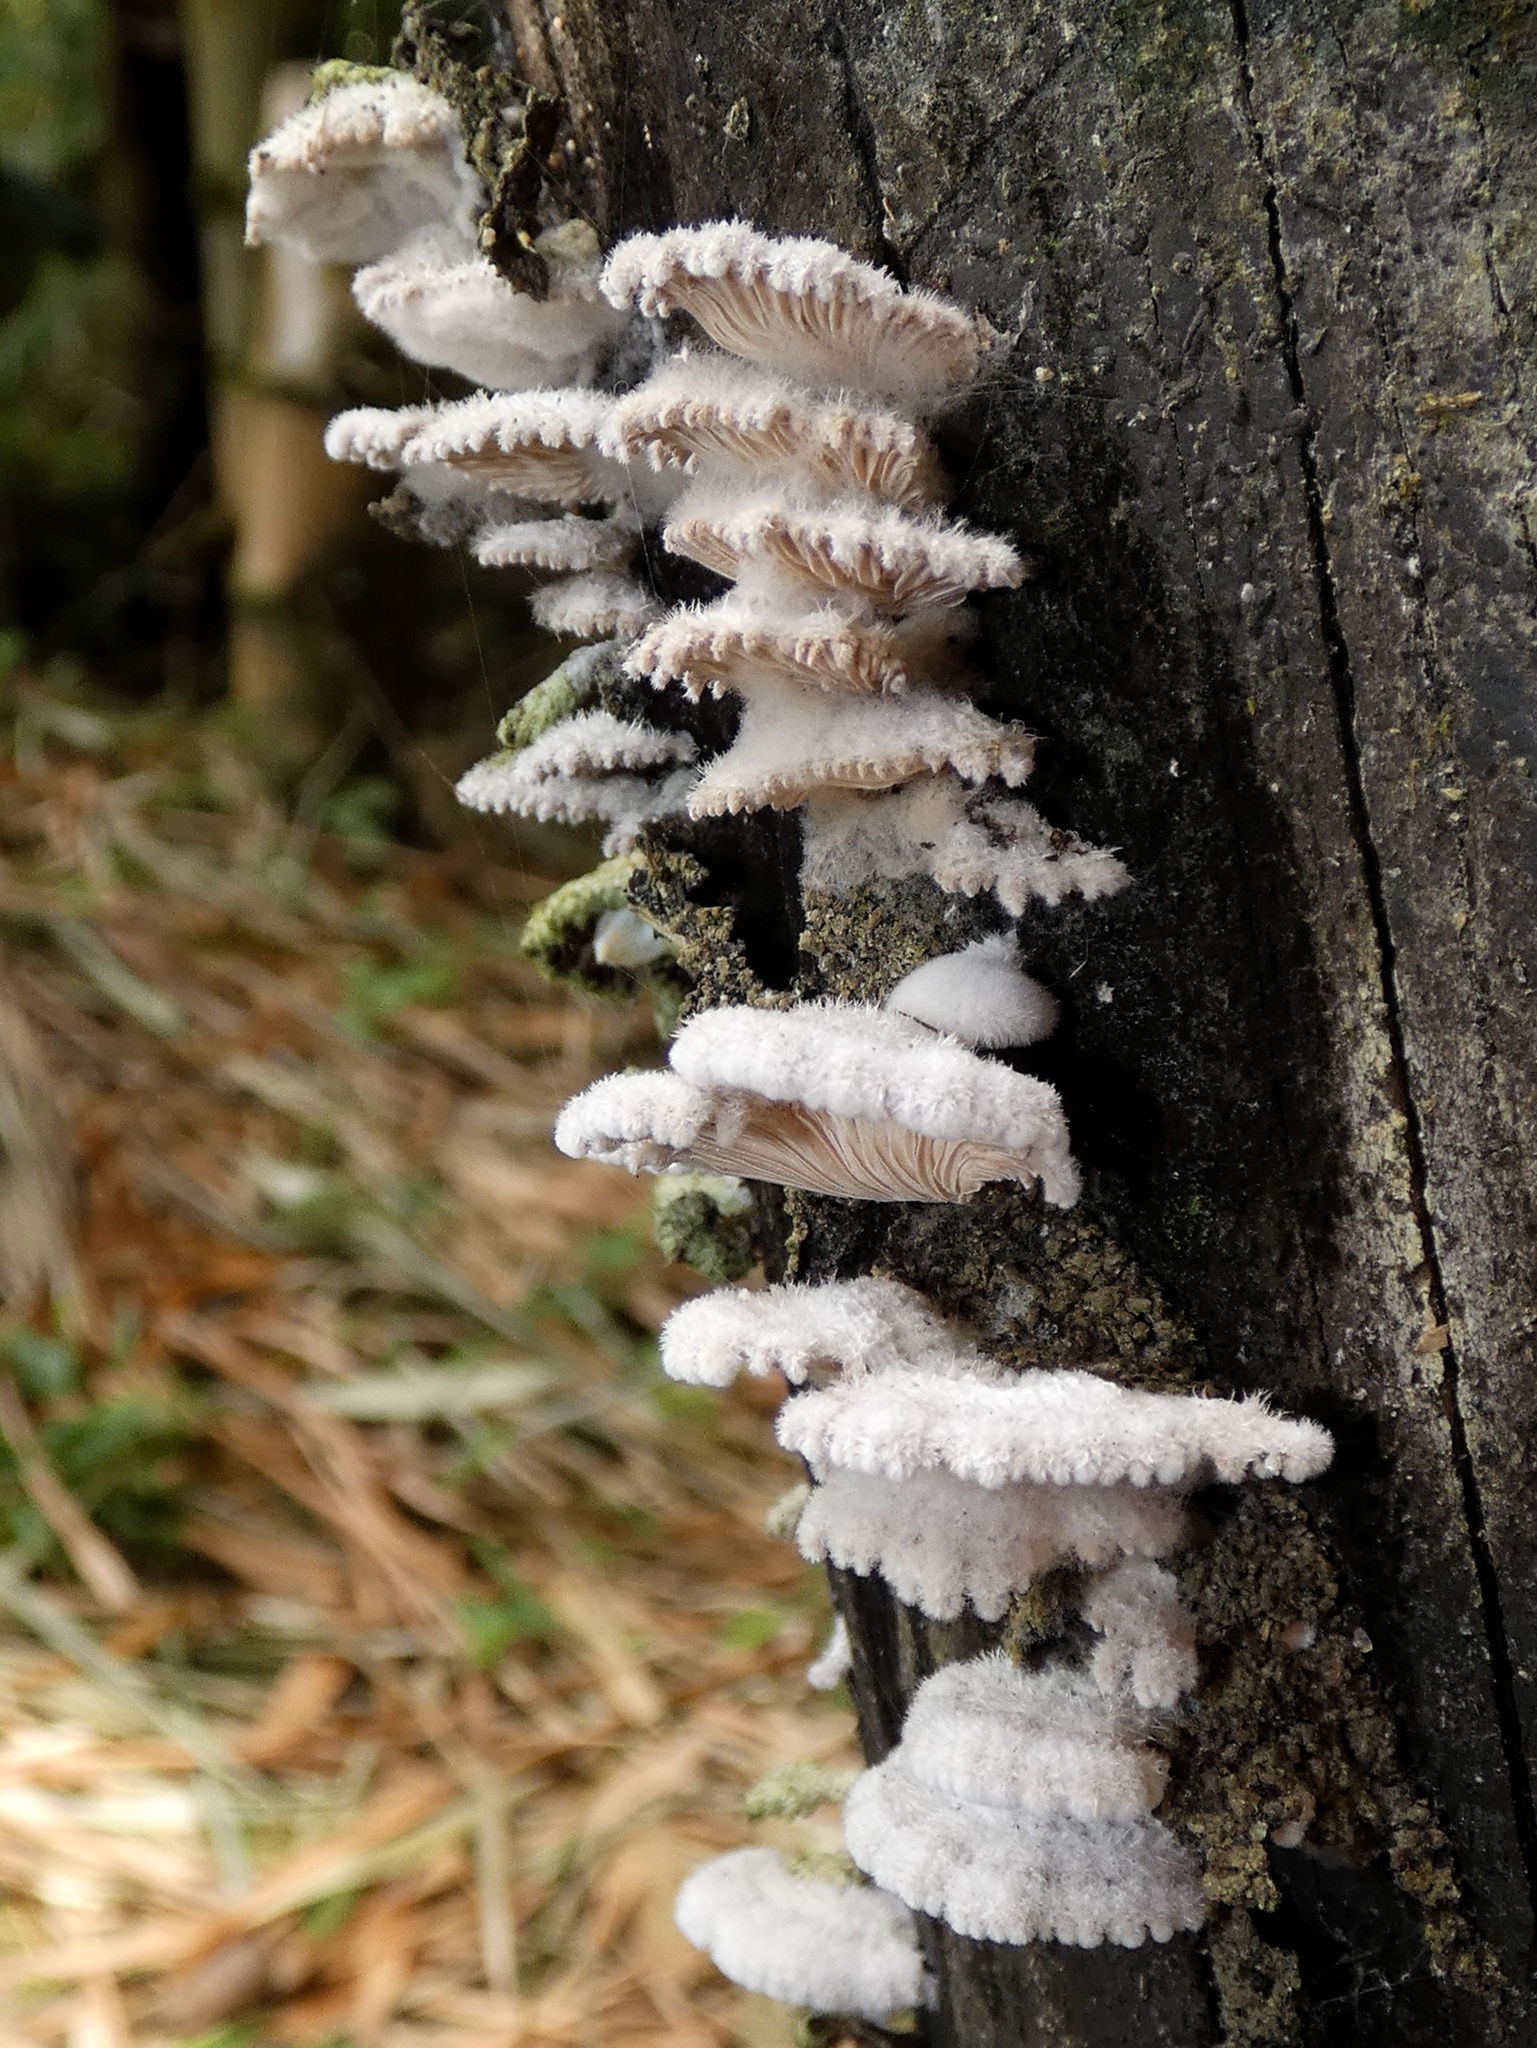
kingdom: Fungi
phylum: Basidiomycota
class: Agaricomycetes
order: Agaricales
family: Schizophyllaceae
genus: Schizophyllum
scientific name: Schizophyllum commune
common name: Common porecrust
